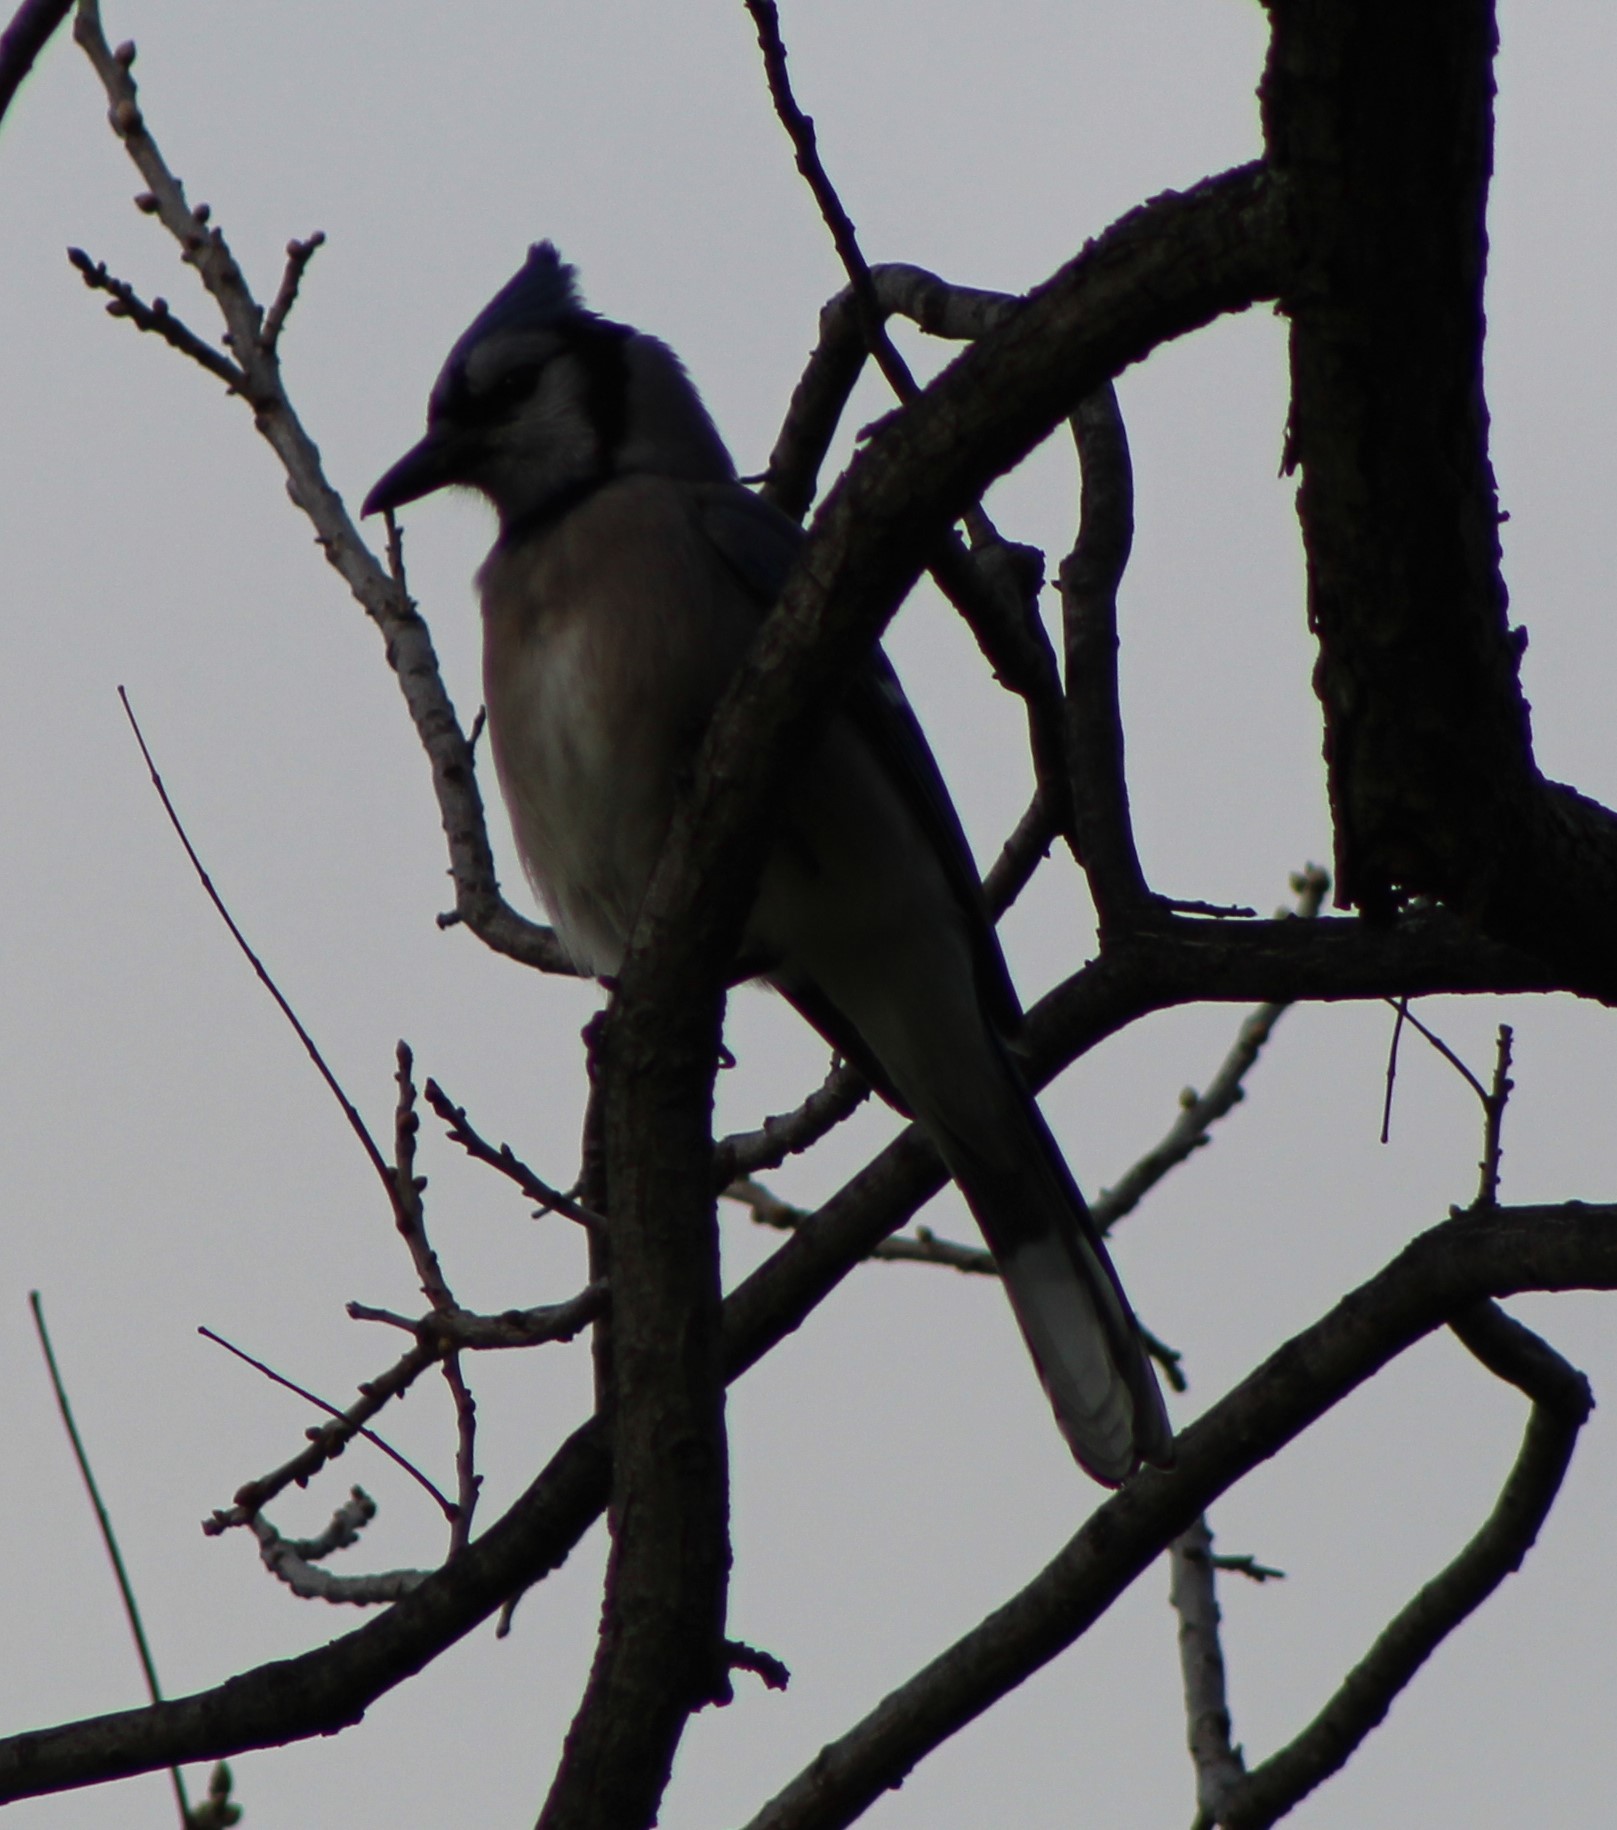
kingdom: Animalia
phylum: Chordata
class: Aves
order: Passeriformes
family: Corvidae
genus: Cyanocitta
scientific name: Cyanocitta cristata
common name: Blue jay
